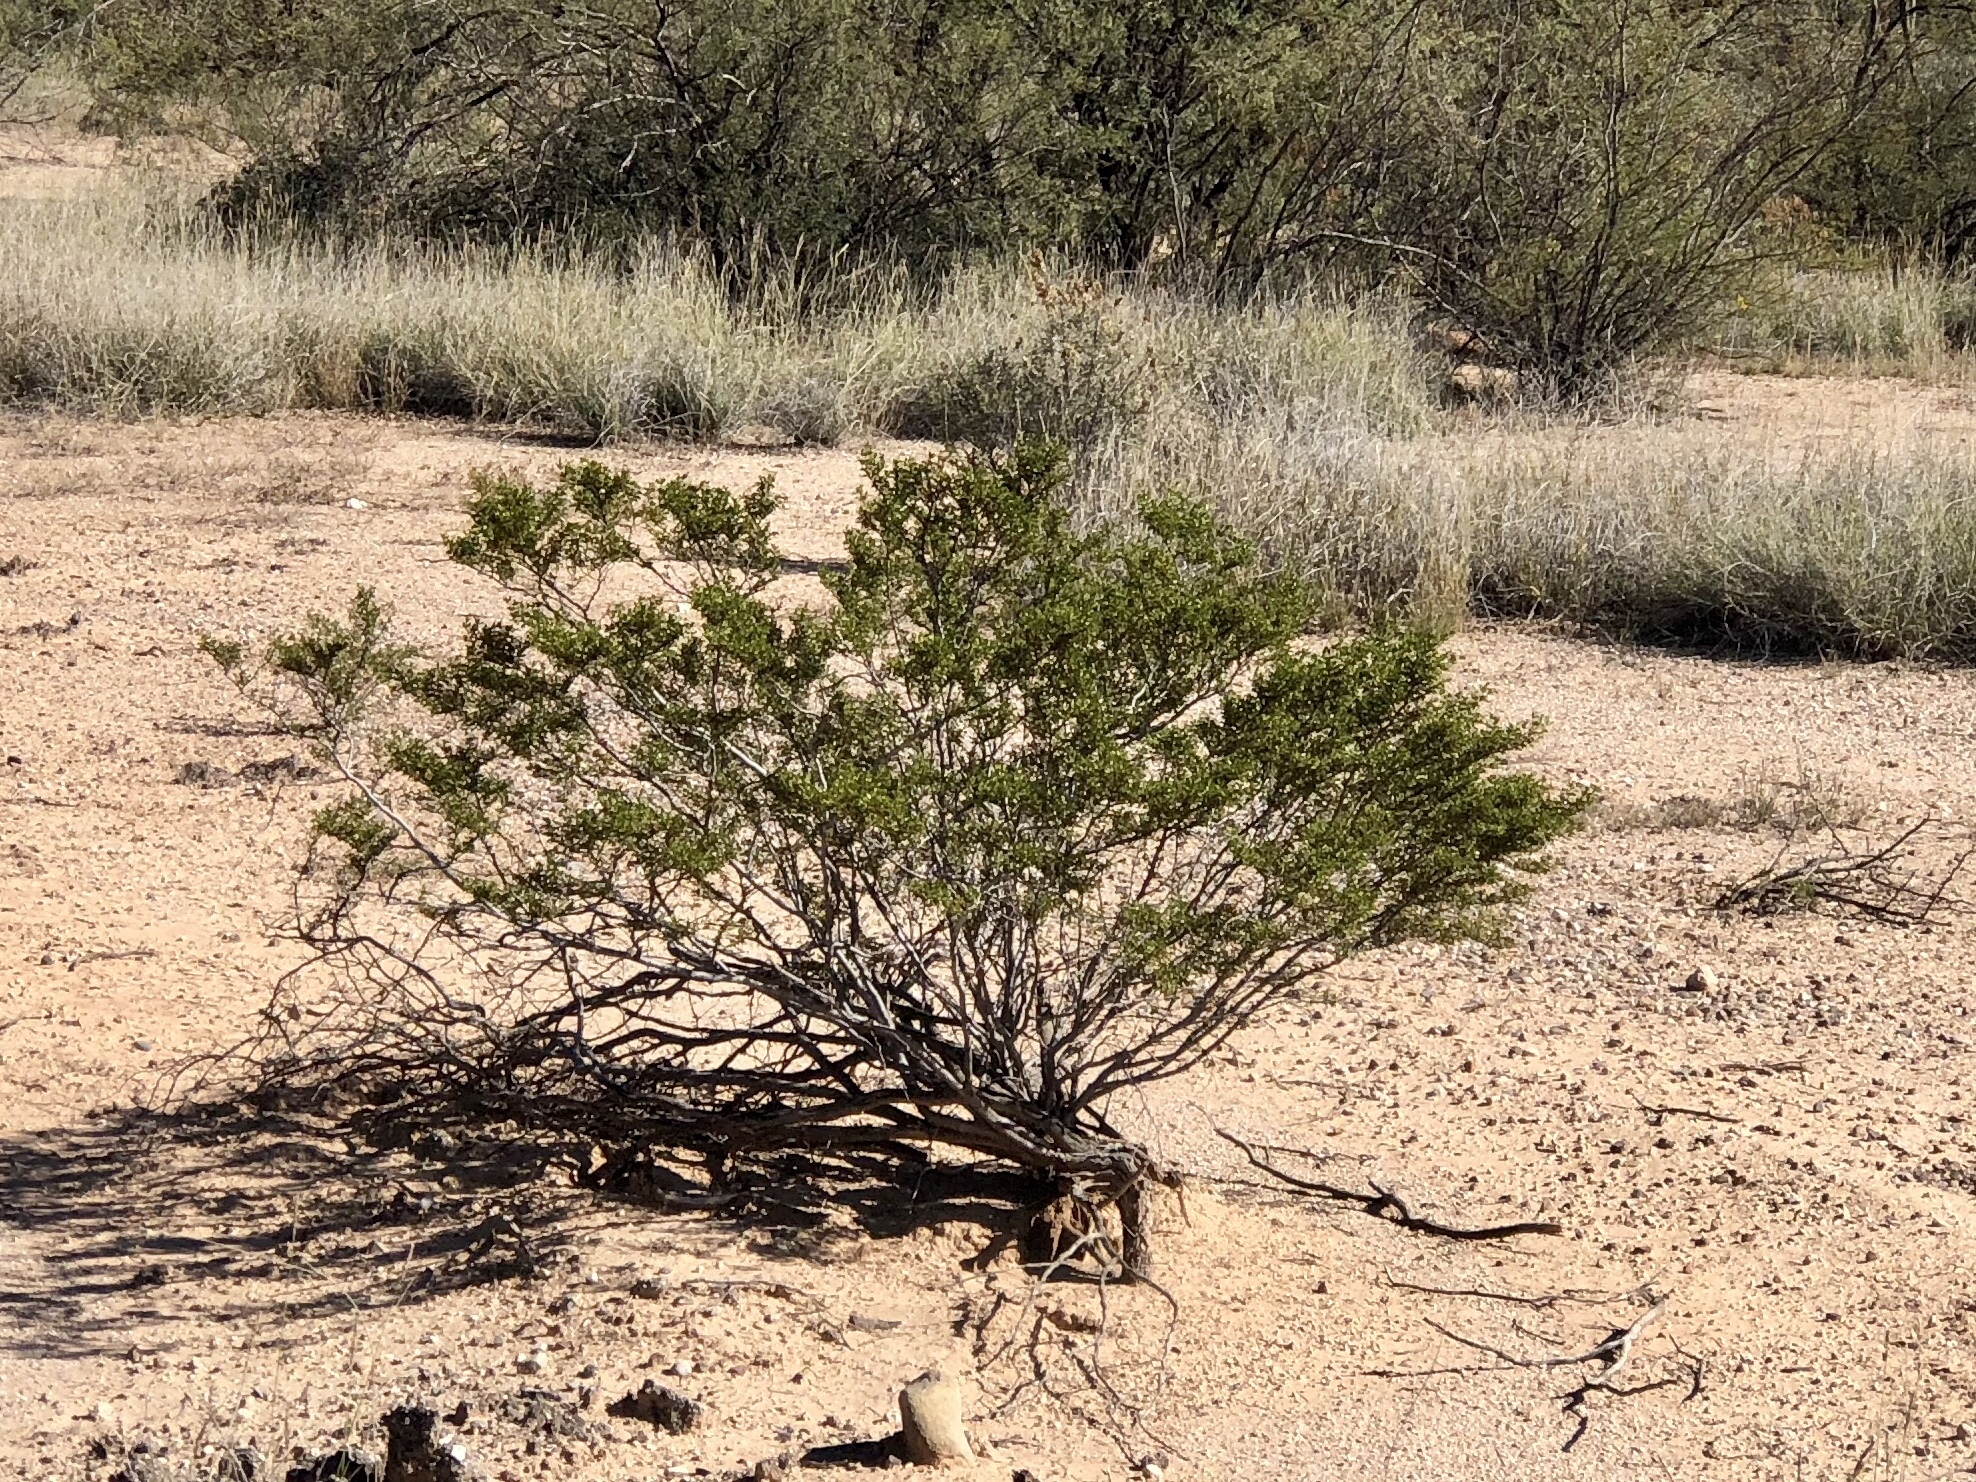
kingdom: Plantae
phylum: Tracheophyta
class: Magnoliopsida
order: Zygophyllales
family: Zygophyllaceae
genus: Larrea
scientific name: Larrea tridentata
